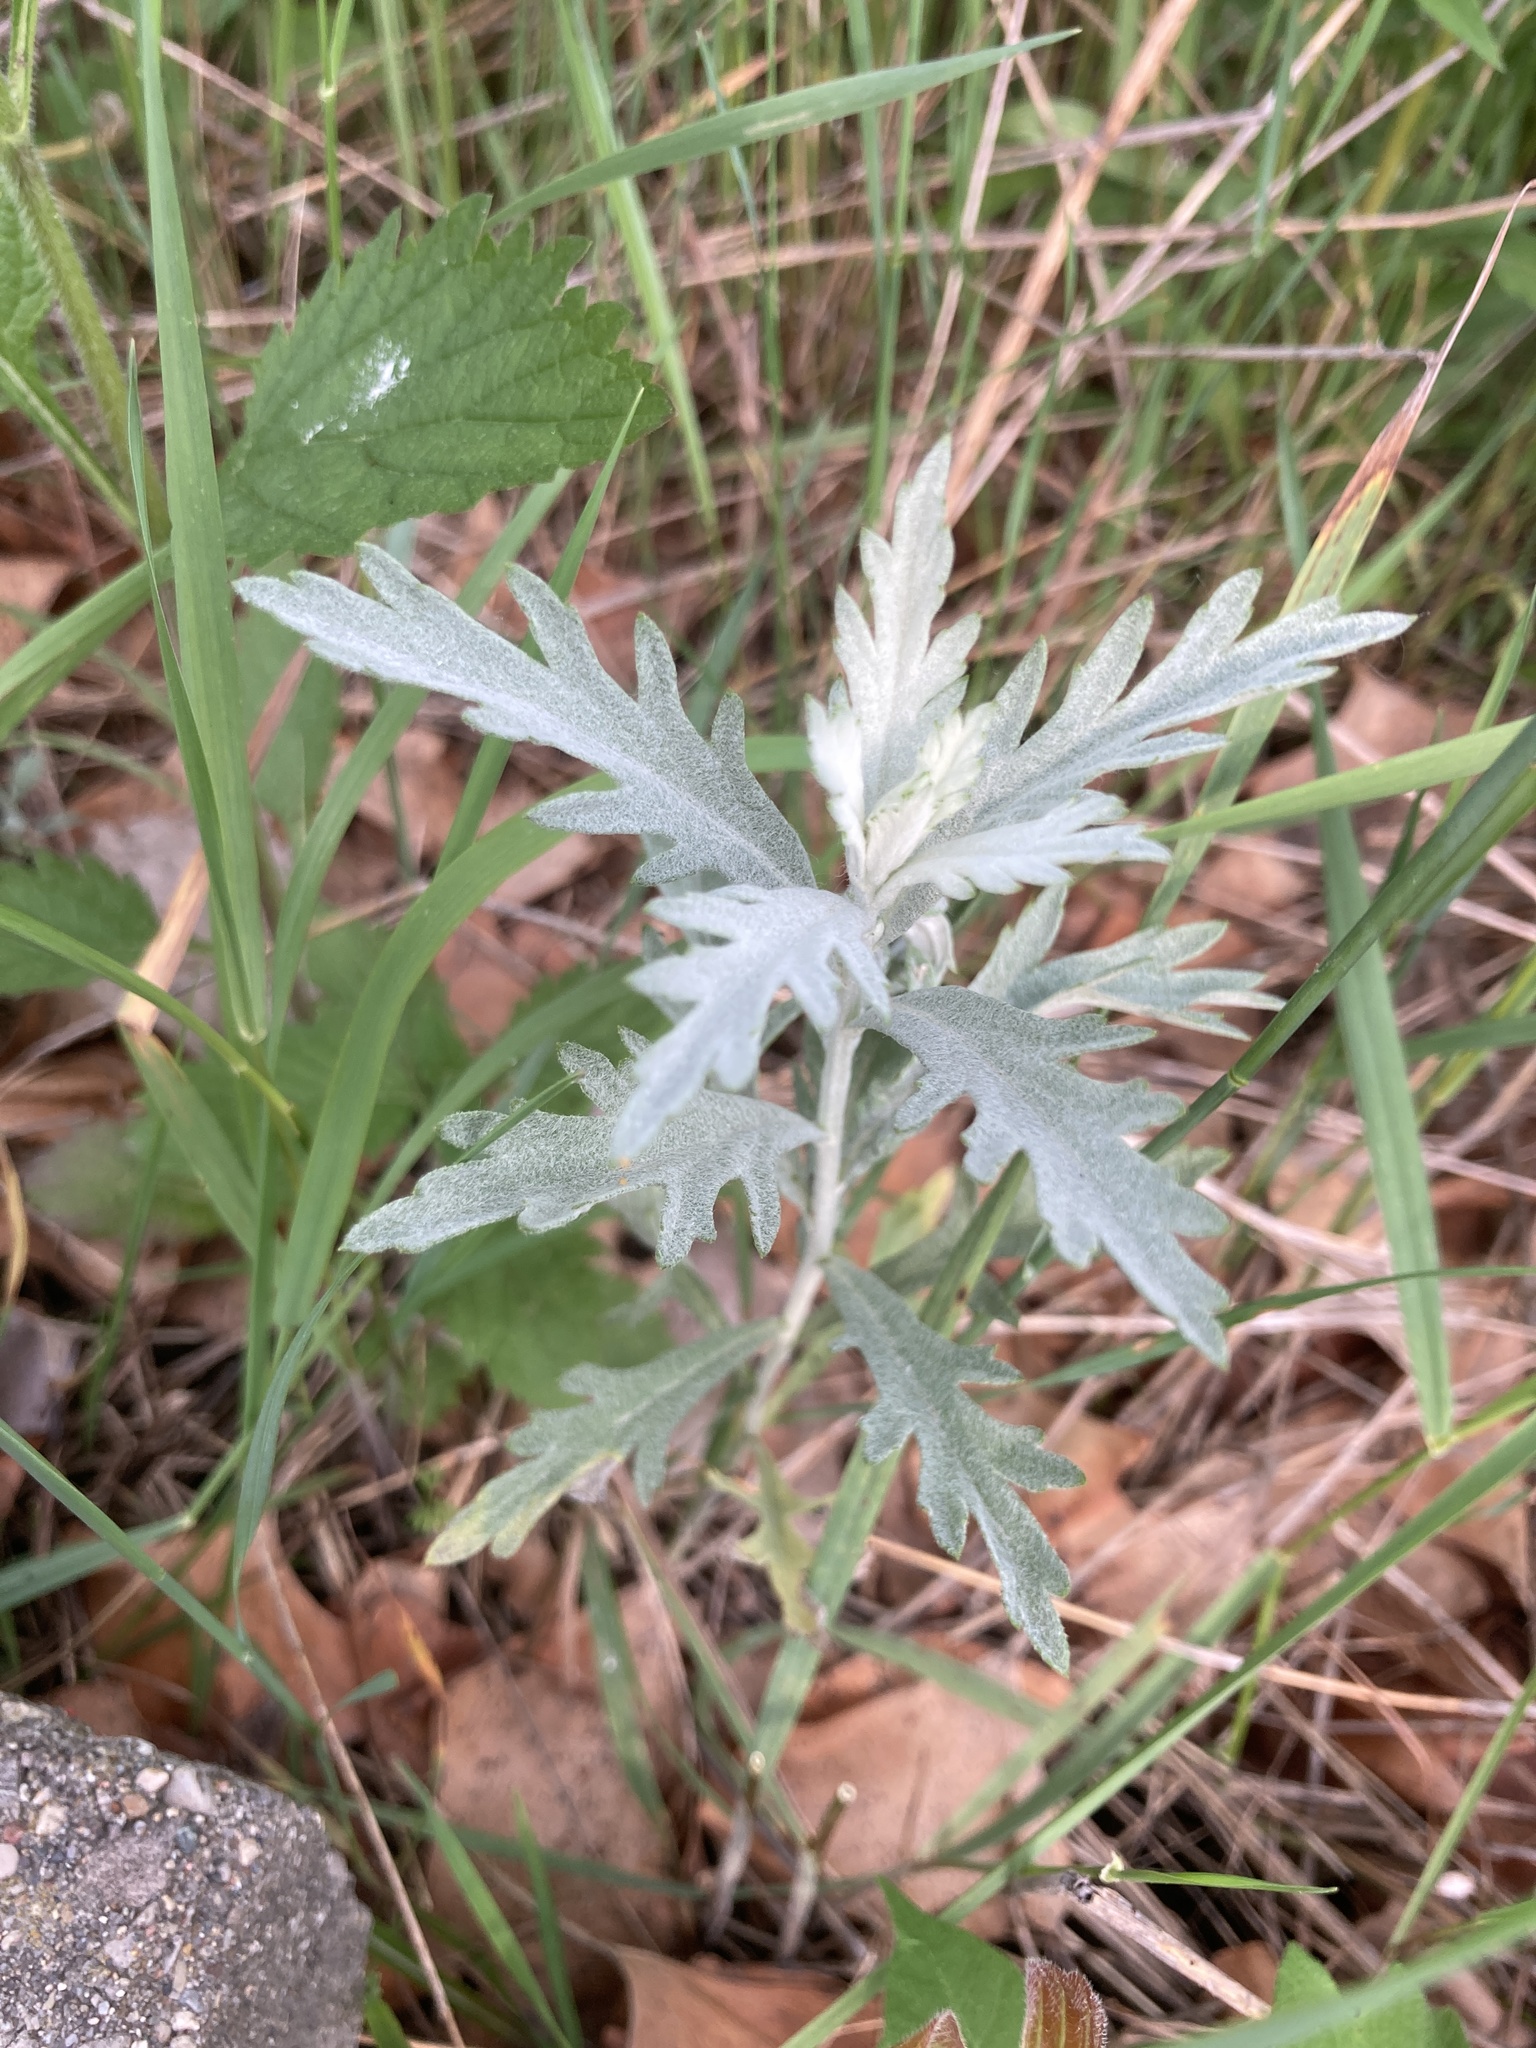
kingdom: Plantae
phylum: Tracheophyta
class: Magnoliopsida
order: Asterales
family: Asteraceae
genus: Artemisia
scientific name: Artemisia ludoviciana
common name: Western mugwort
